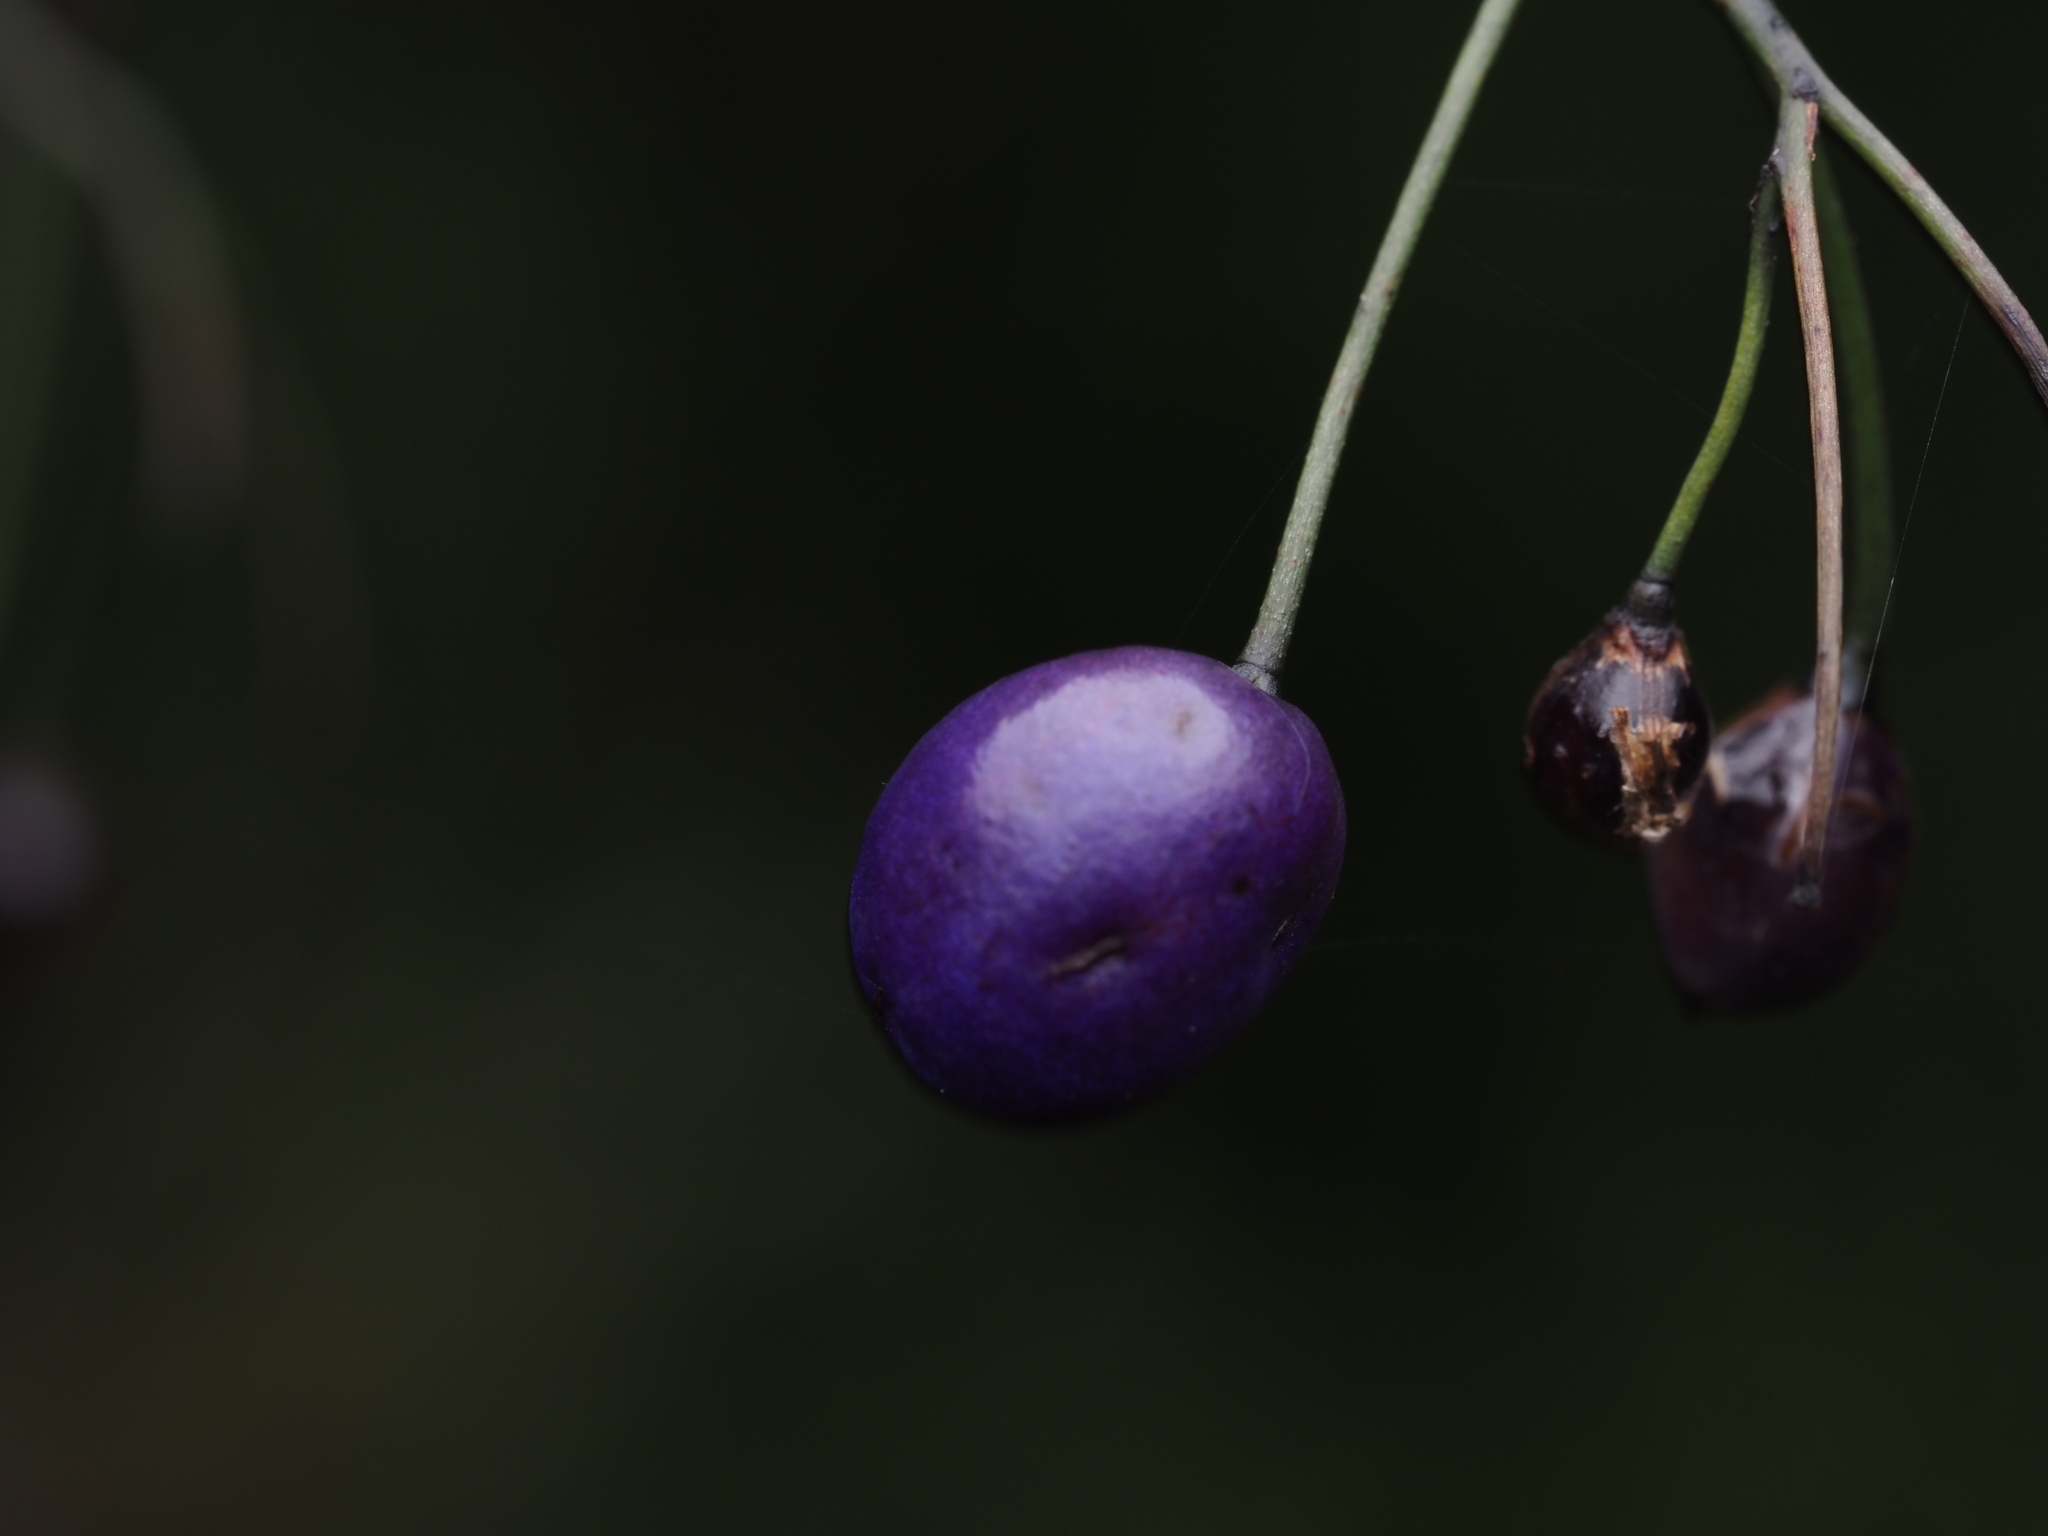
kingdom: Plantae
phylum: Tracheophyta
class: Liliopsida
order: Asparagales
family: Asphodelaceae
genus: Dianella
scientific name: Dianella nigra
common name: New zealand-blueberry
